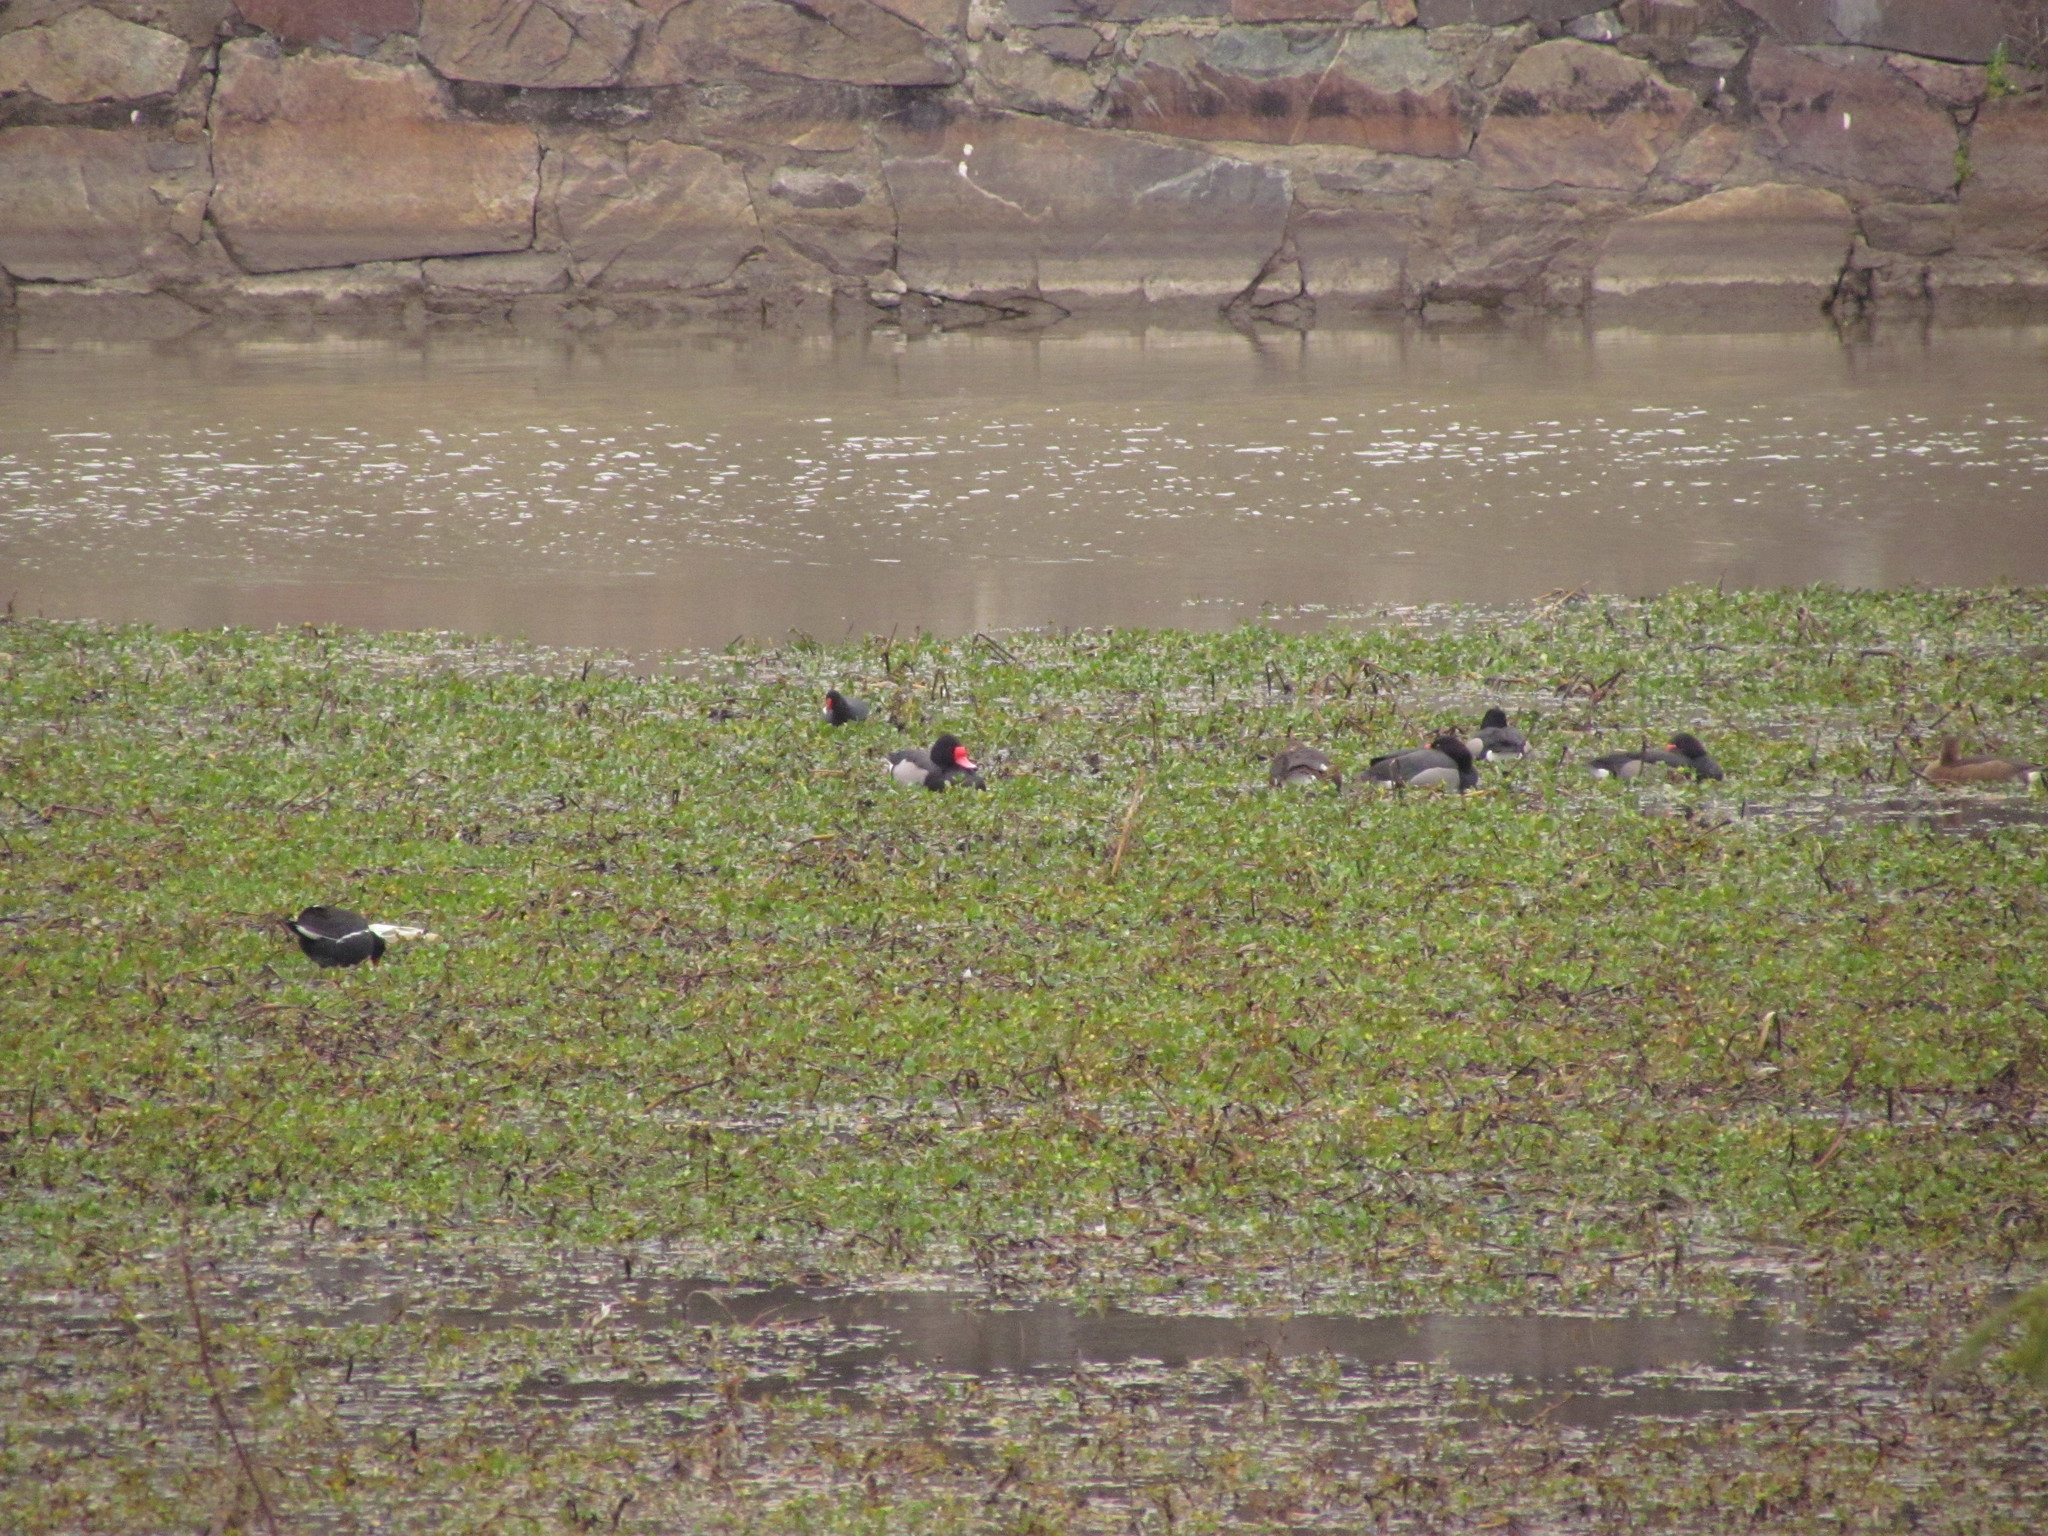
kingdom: Animalia
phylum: Chordata
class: Aves
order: Anseriformes
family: Anatidae
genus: Netta
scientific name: Netta peposaca
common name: Rosy-billed pochard
